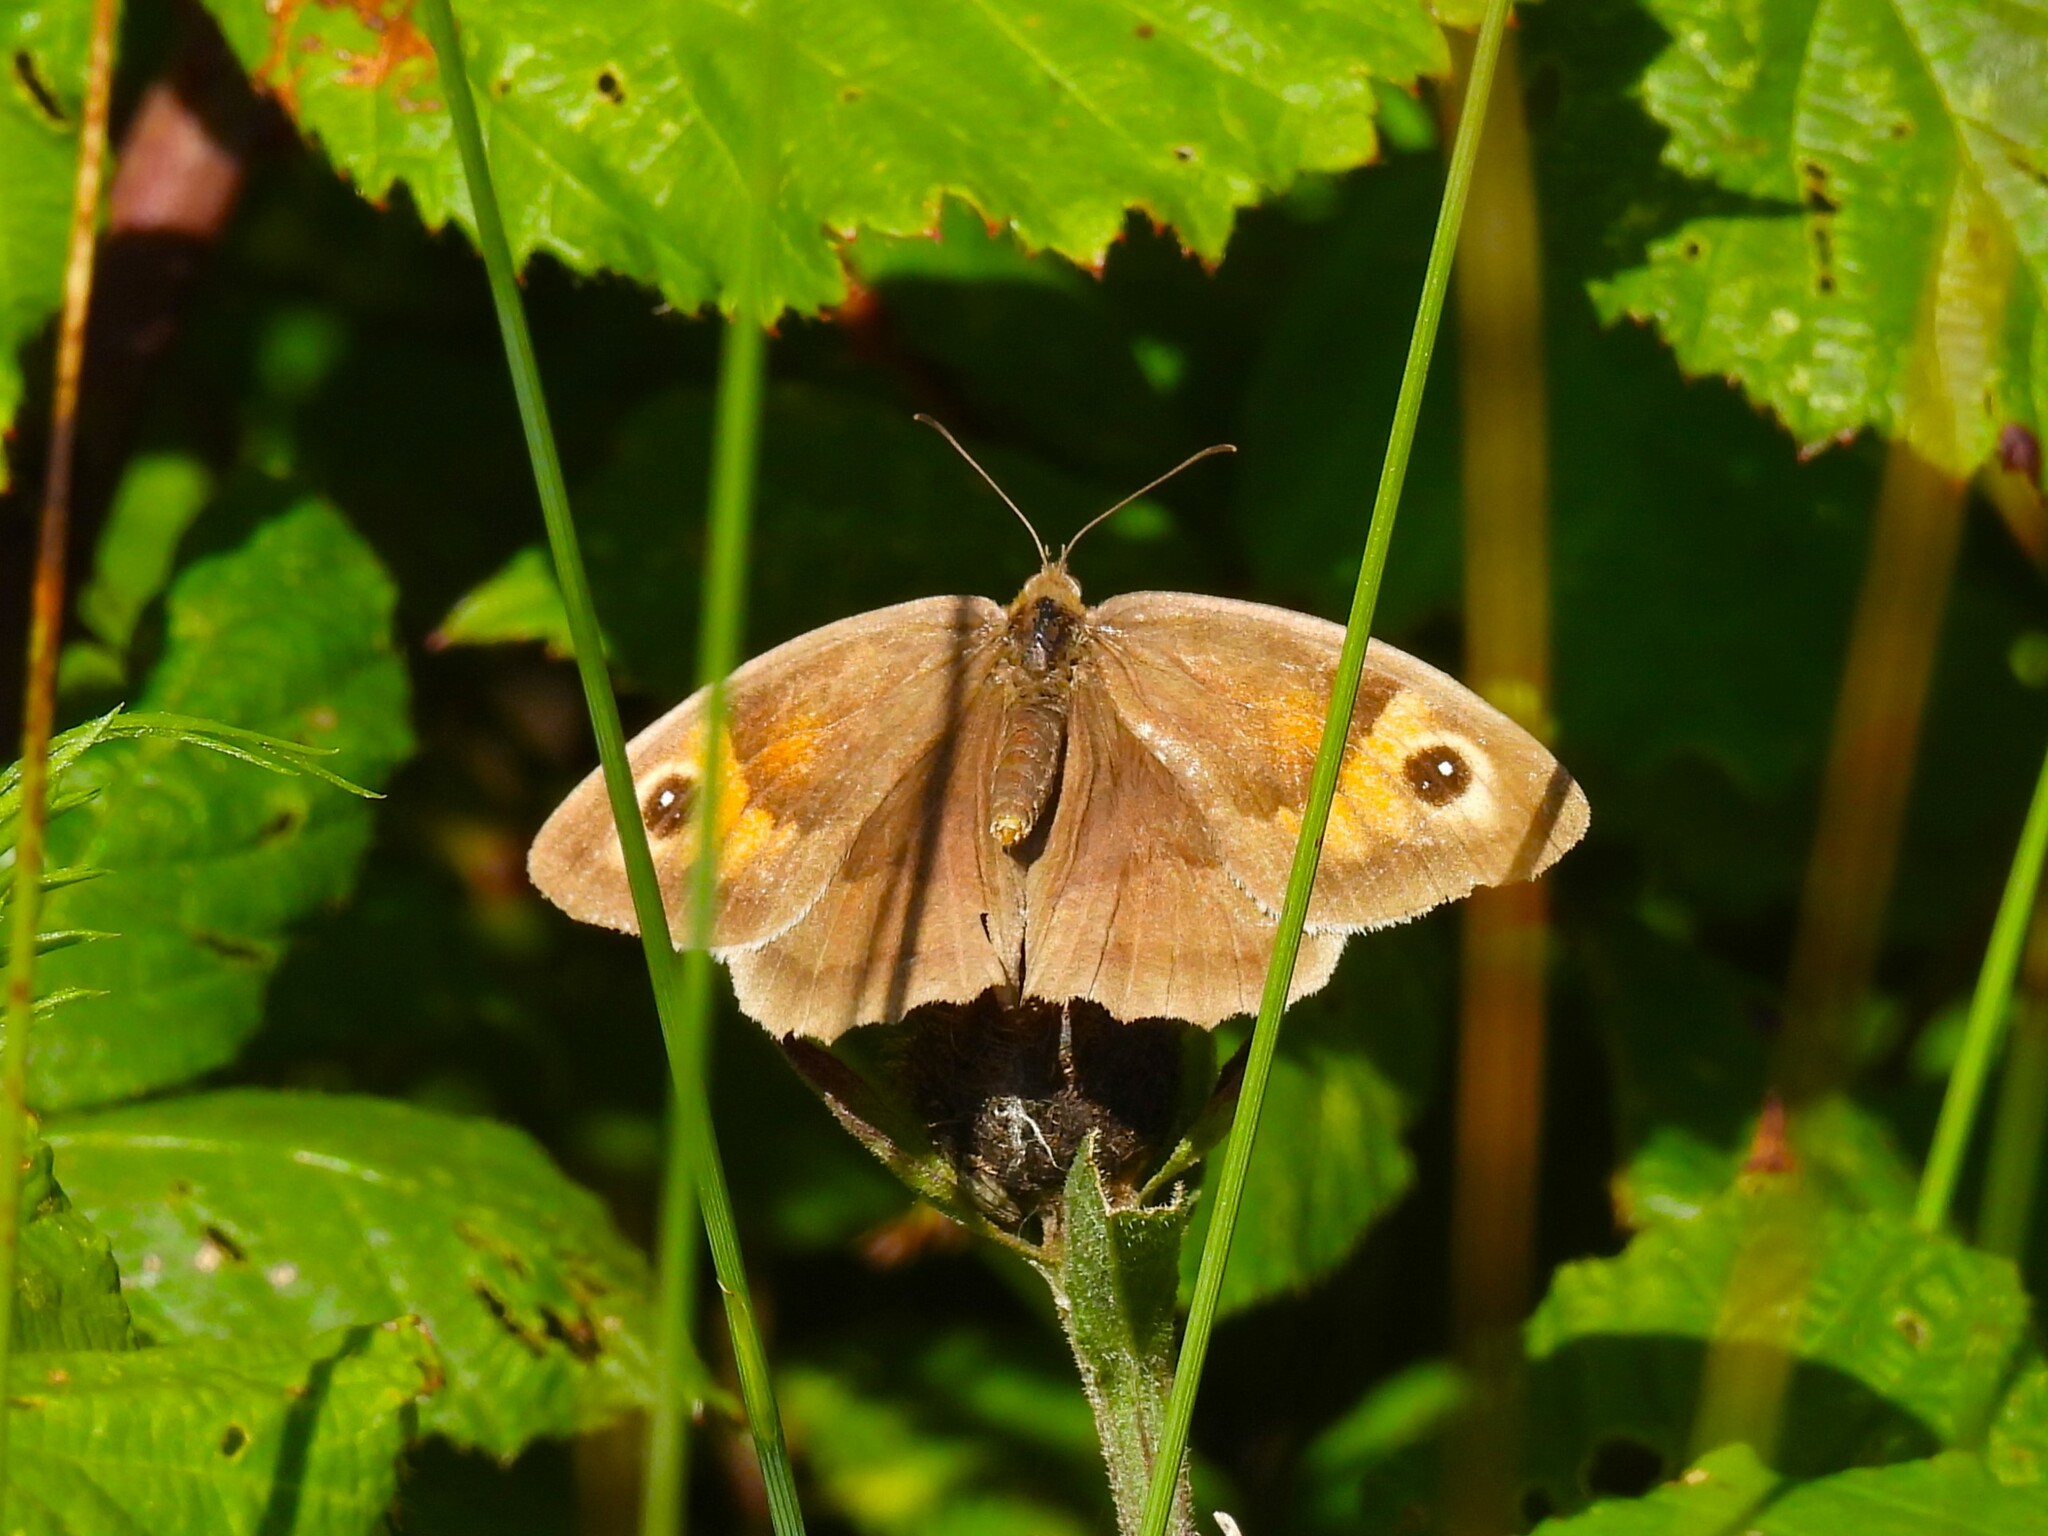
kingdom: Animalia
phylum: Arthropoda
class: Insecta
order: Lepidoptera
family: Nymphalidae
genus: Maniola
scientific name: Maniola jurtina
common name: Meadow brown
